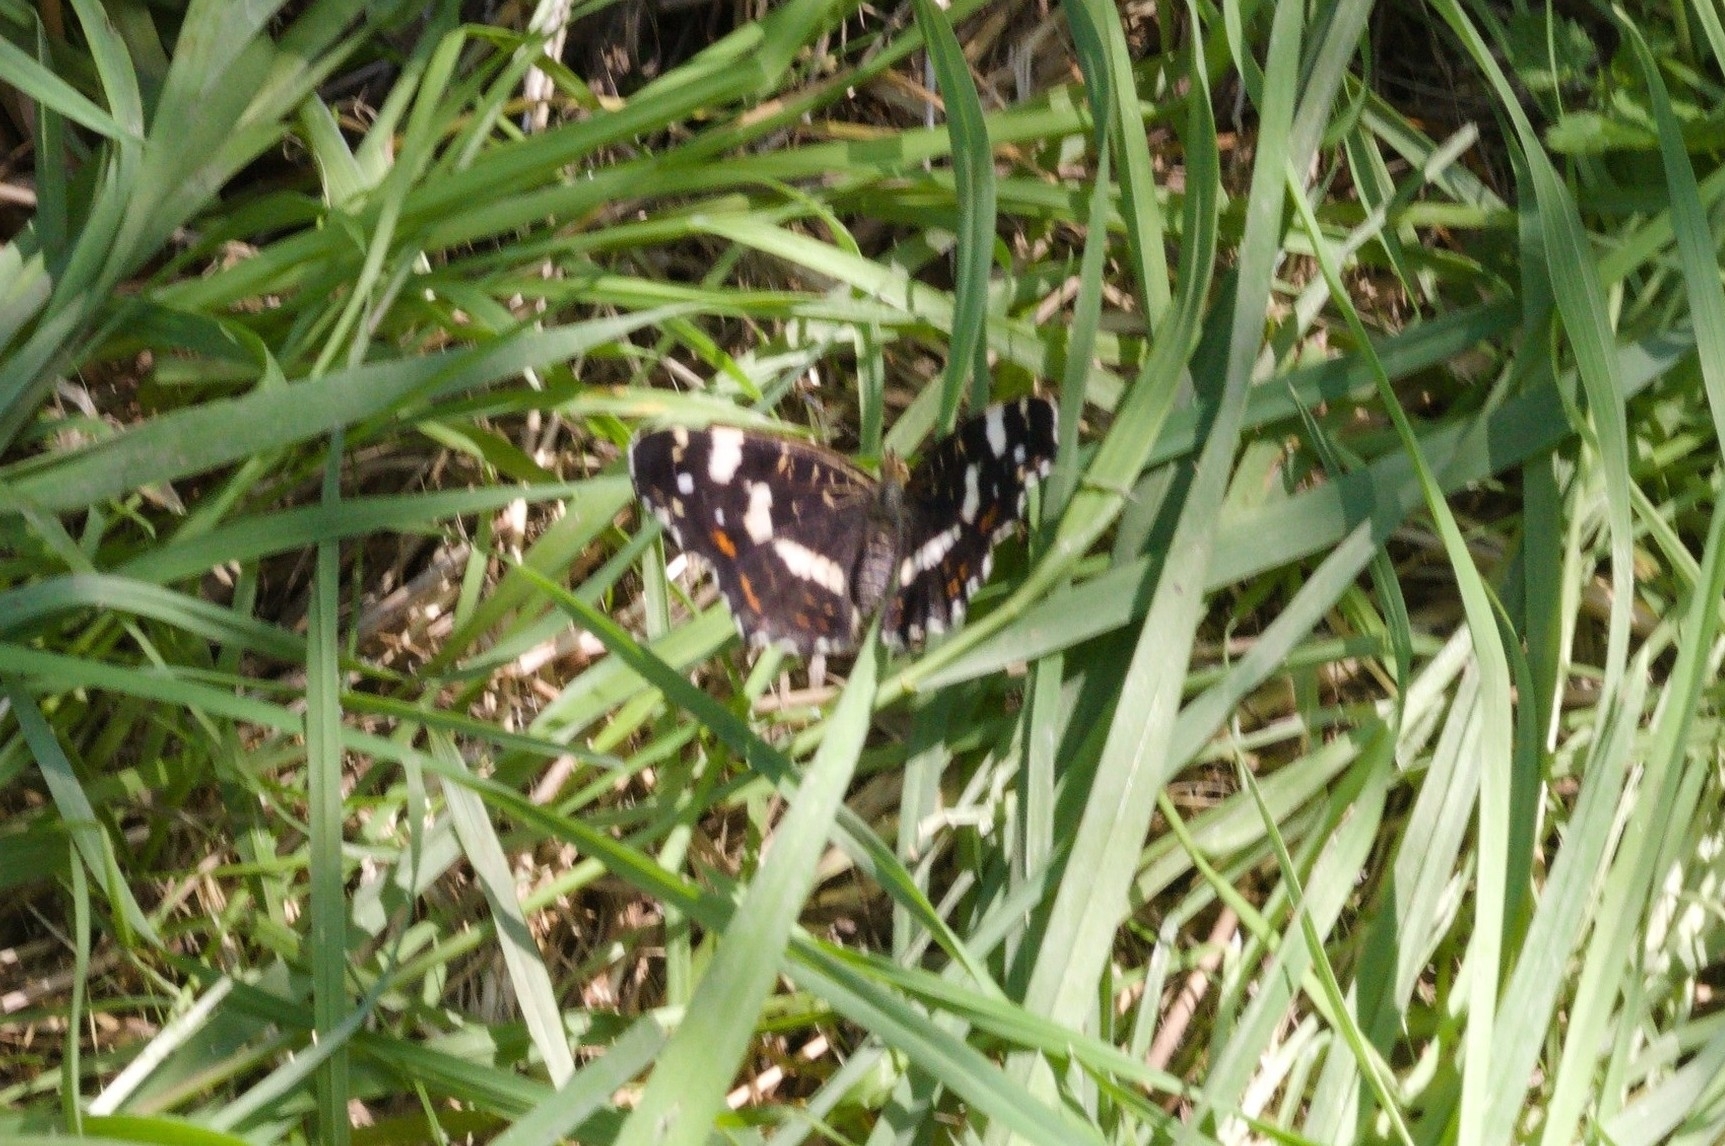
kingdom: Animalia
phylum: Arthropoda
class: Insecta
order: Lepidoptera
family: Nymphalidae
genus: Araschnia
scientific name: Araschnia levana
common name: Map butterfly
